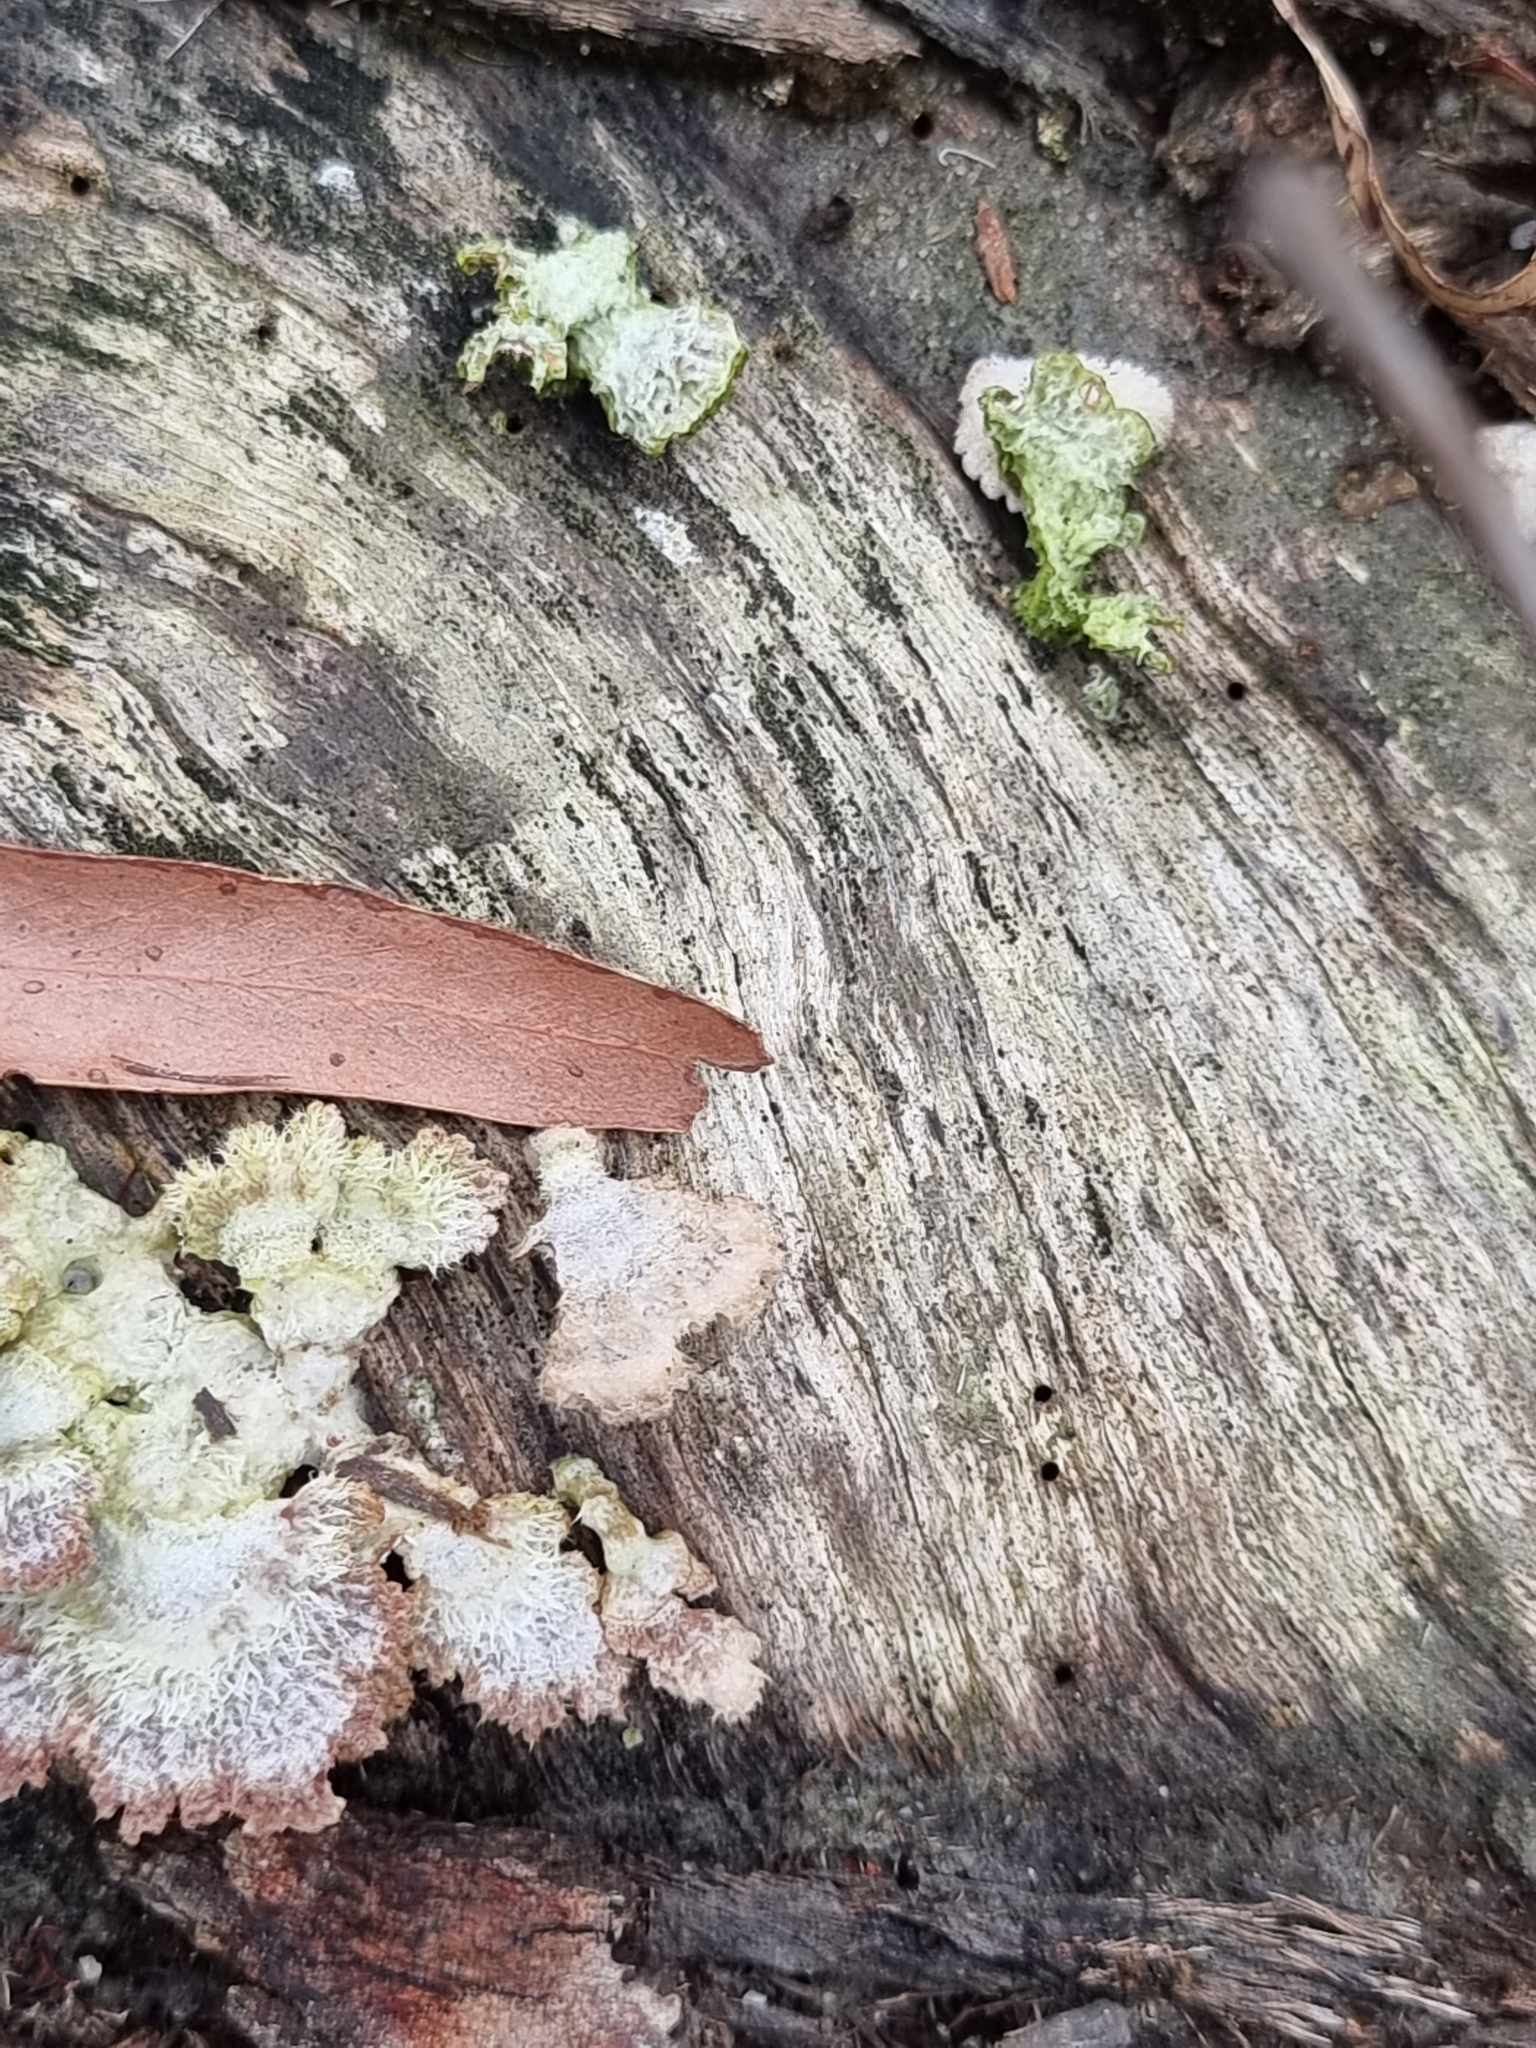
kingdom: Fungi
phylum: Basidiomycota
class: Agaricomycetes
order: Agaricales
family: Schizophyllaceae
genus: Schizophyllum
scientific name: Schizophyllum commune
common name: Common porecrust
